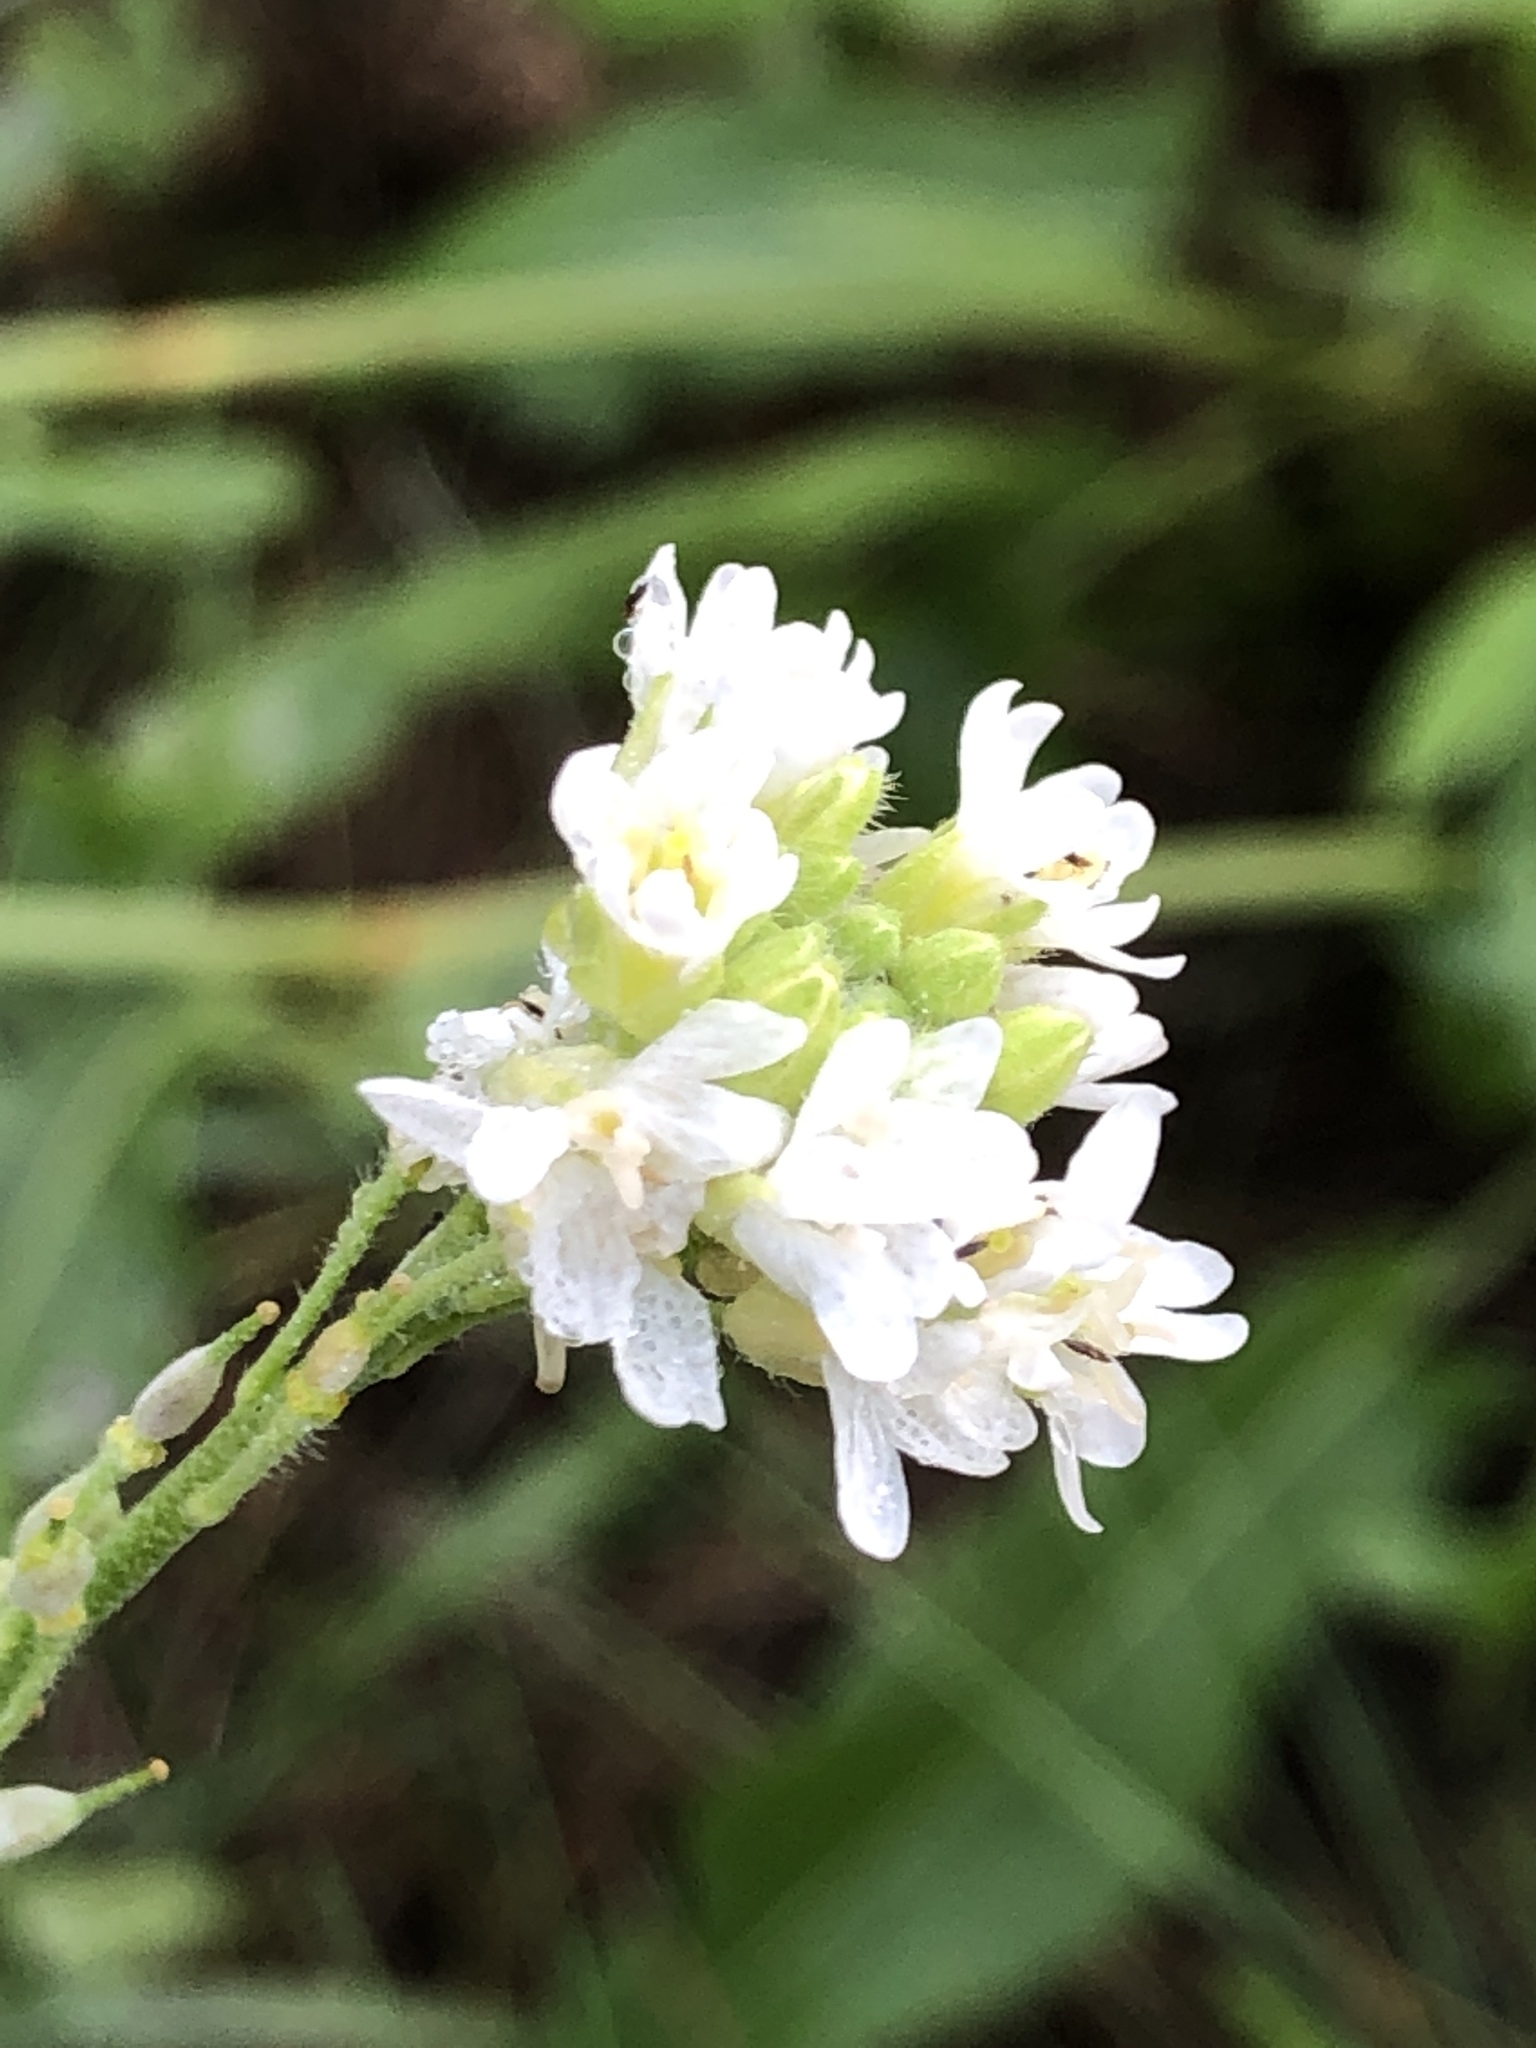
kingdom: Plantae
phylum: Tracheophyta
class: Magnoliopsida
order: Brassicales
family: Brassicaceae
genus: Berteroa
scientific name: Berteroa incana
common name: Hoary alison
